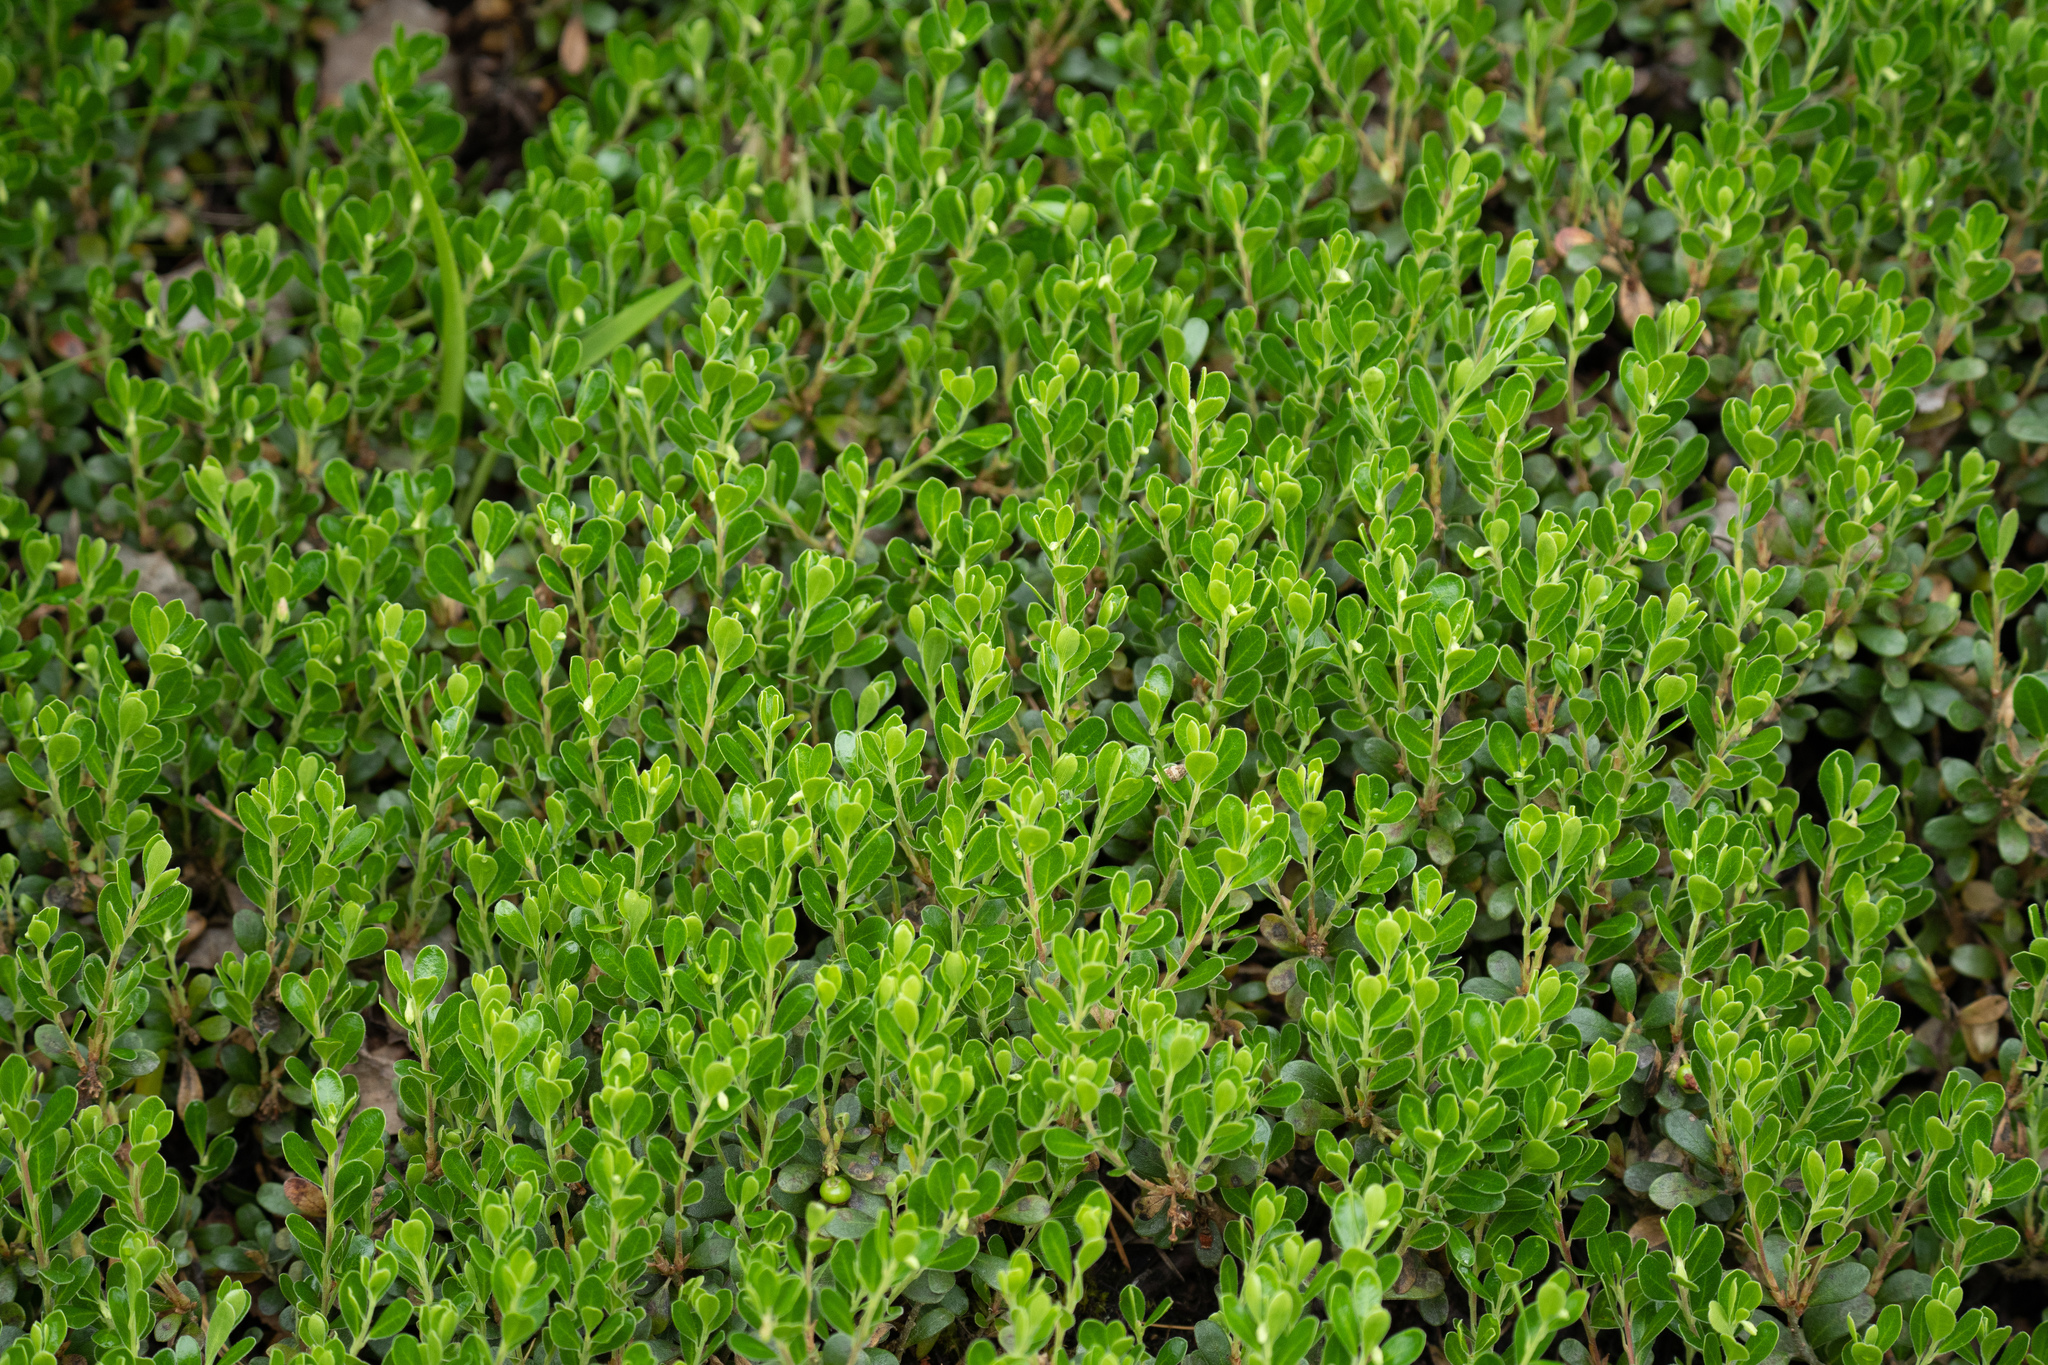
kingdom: Plantae
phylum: Tracheophyta
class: Magnoliopsida
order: Ericales
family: Ericaceae
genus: Arctostaphylos
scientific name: Arctostaphylos uva-ursi
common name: Bearberry
